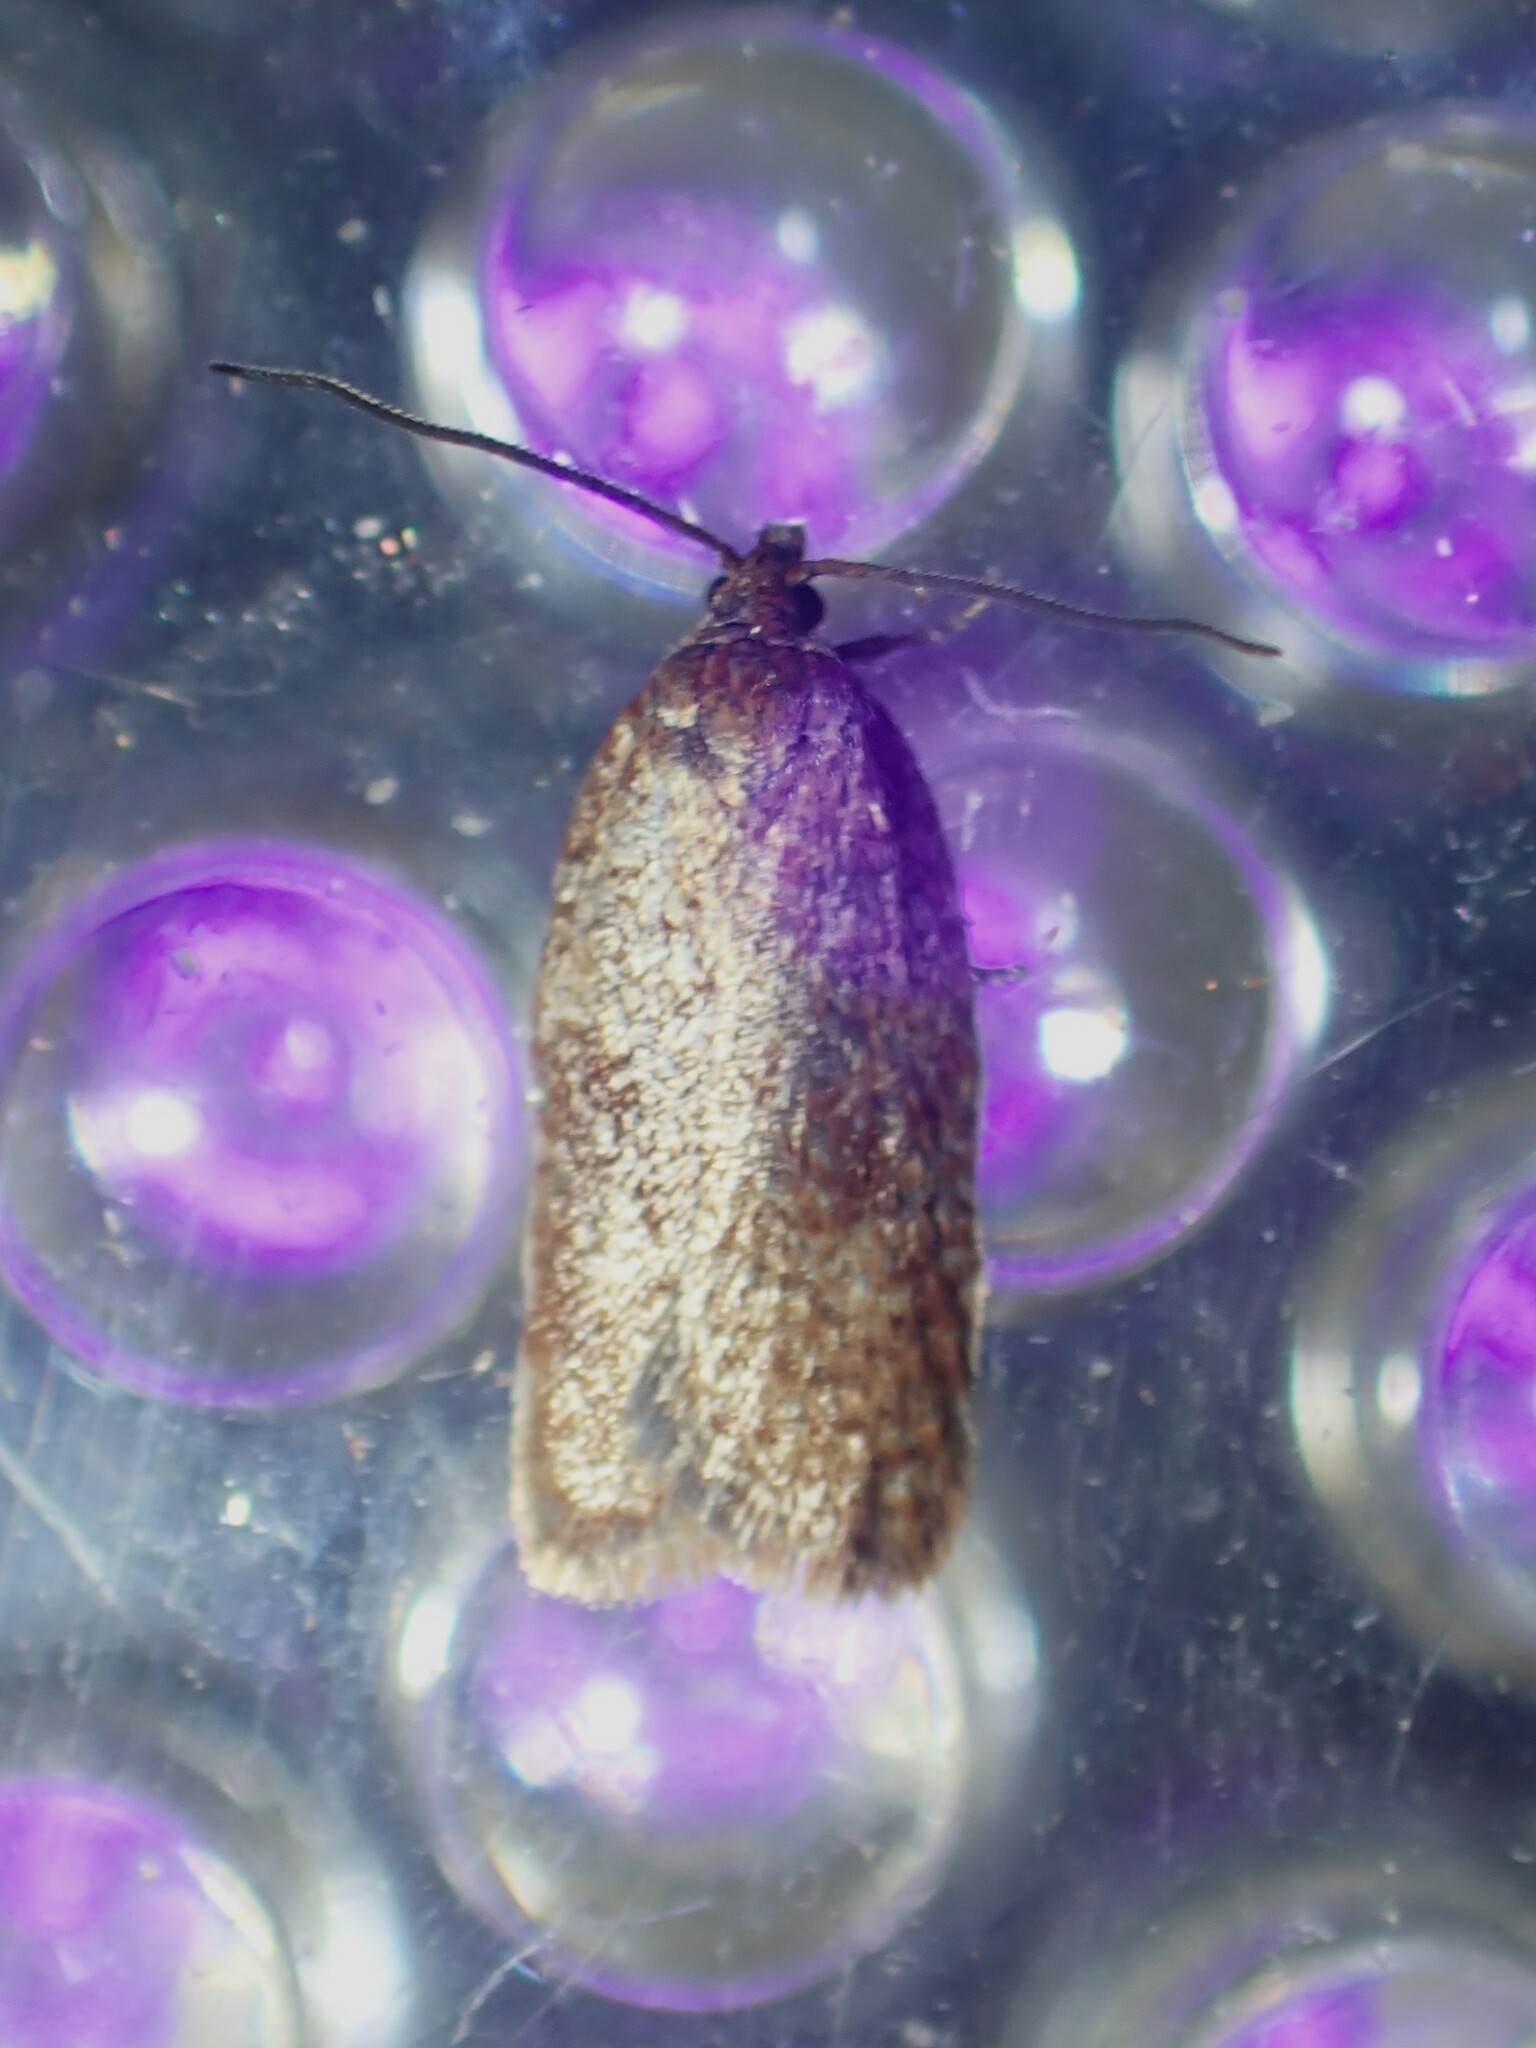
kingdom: Animalia
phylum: Arthropoda
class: Insecta
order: Lepidoptera
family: Tortricidae
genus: Acleris
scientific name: Acleris oxycoccana
